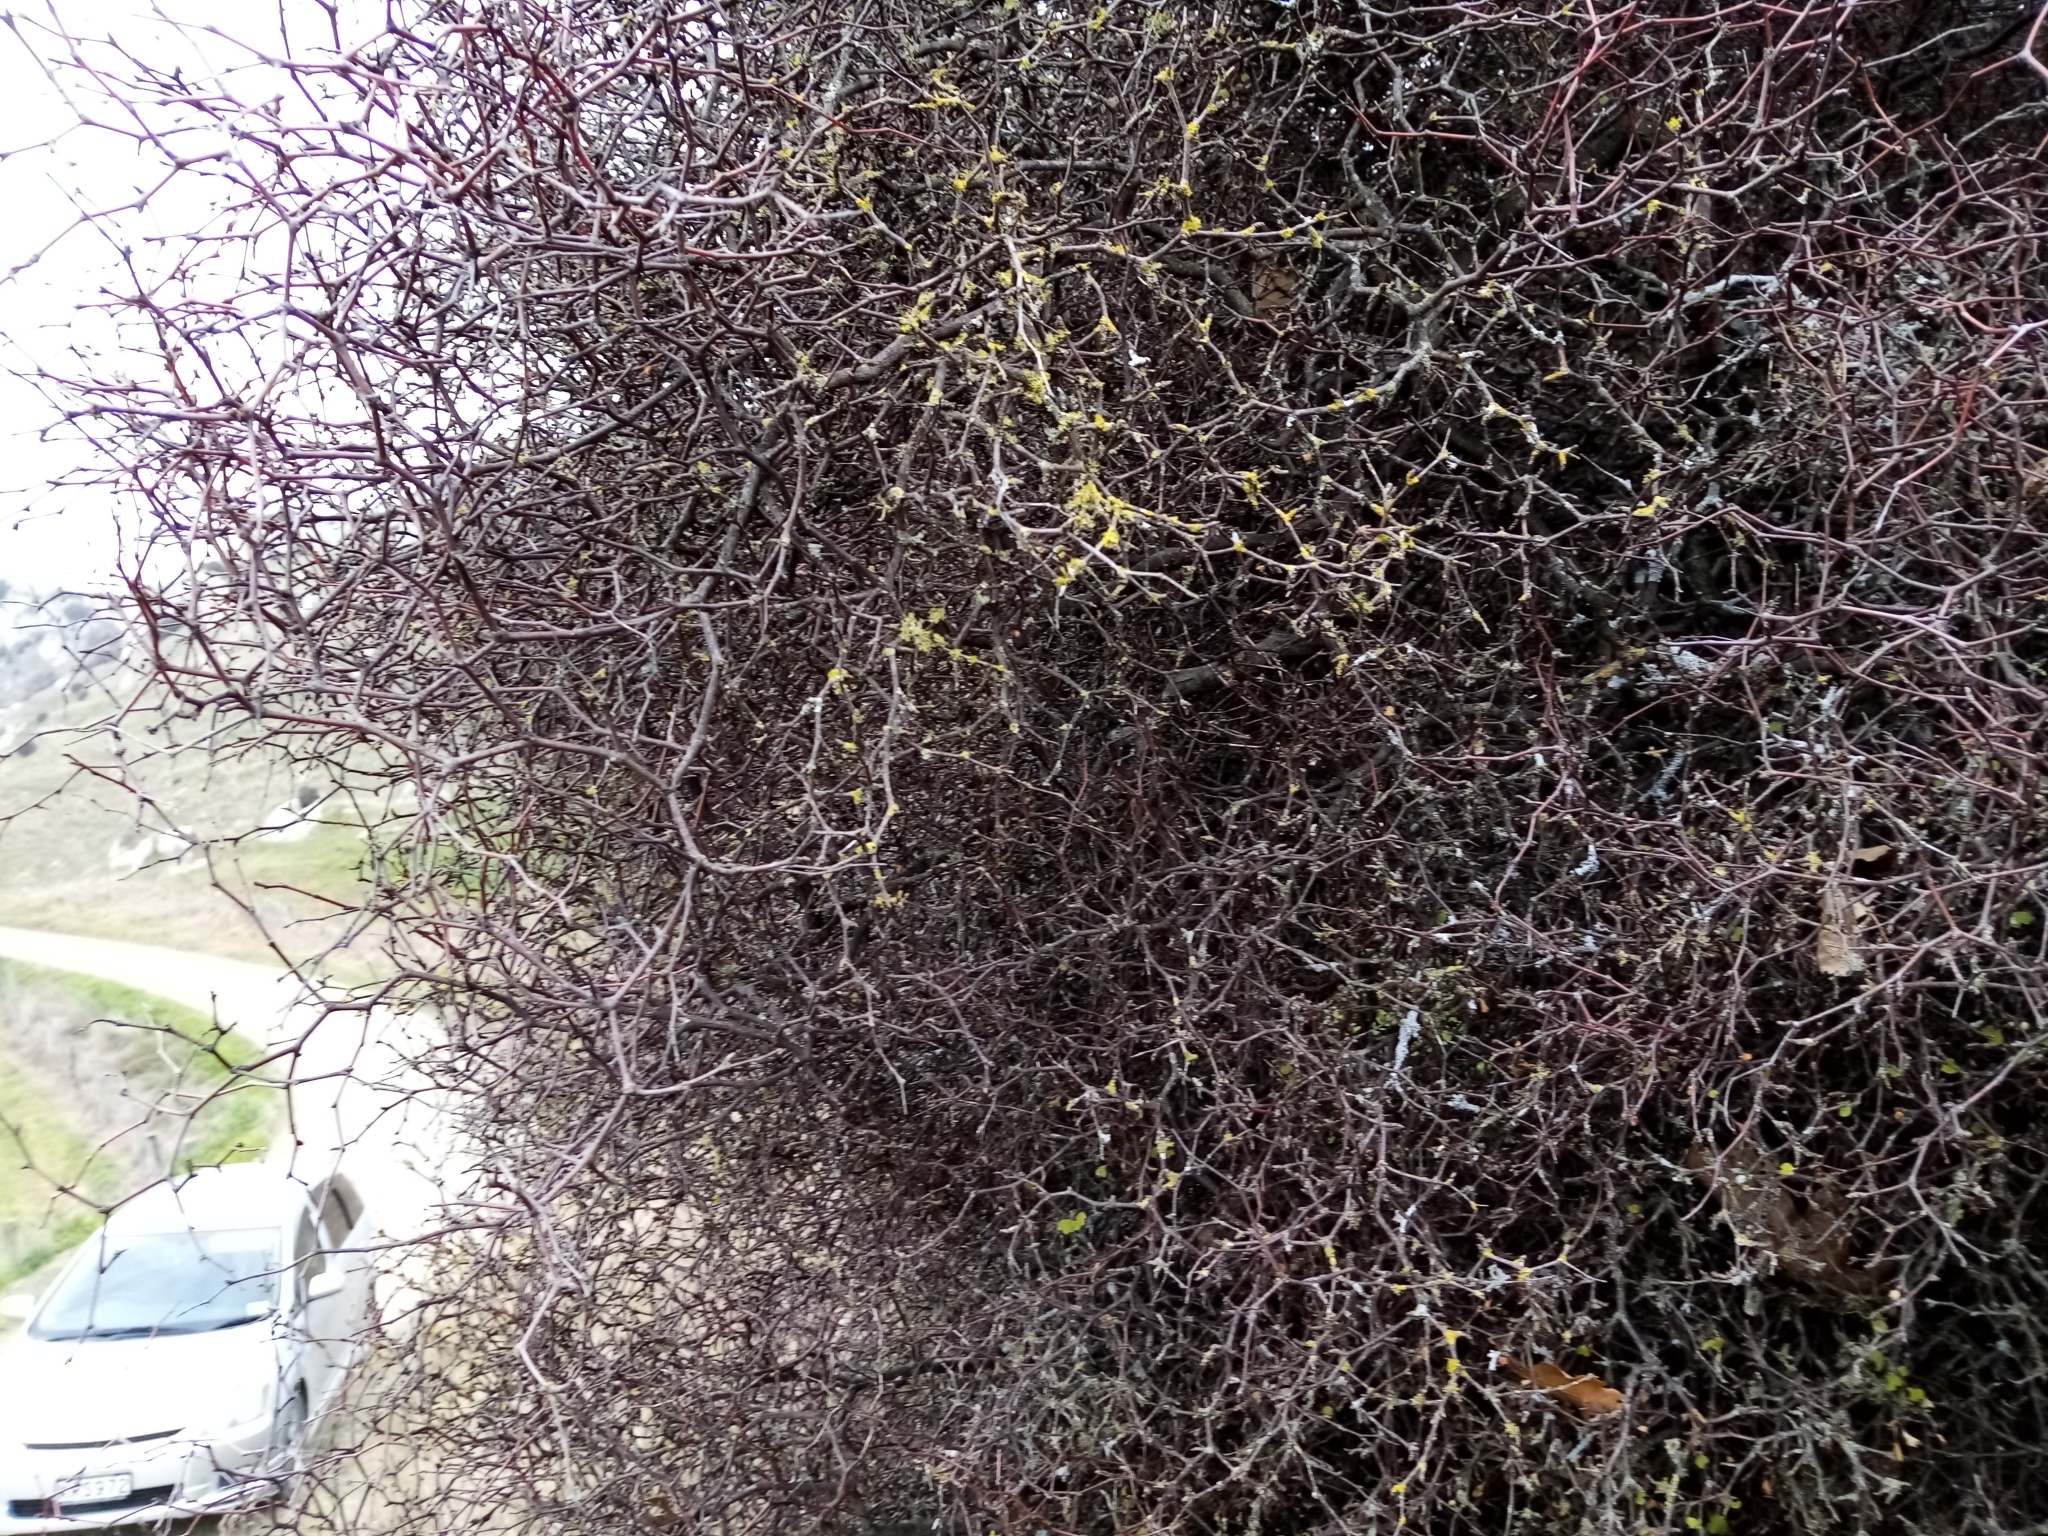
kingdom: Plantae
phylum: Tracheophyta
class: Magnoliopsida
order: Caryophyllales
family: Polygonaceae
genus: Muehlenbeckia
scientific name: Muehlenbeckia astonii
